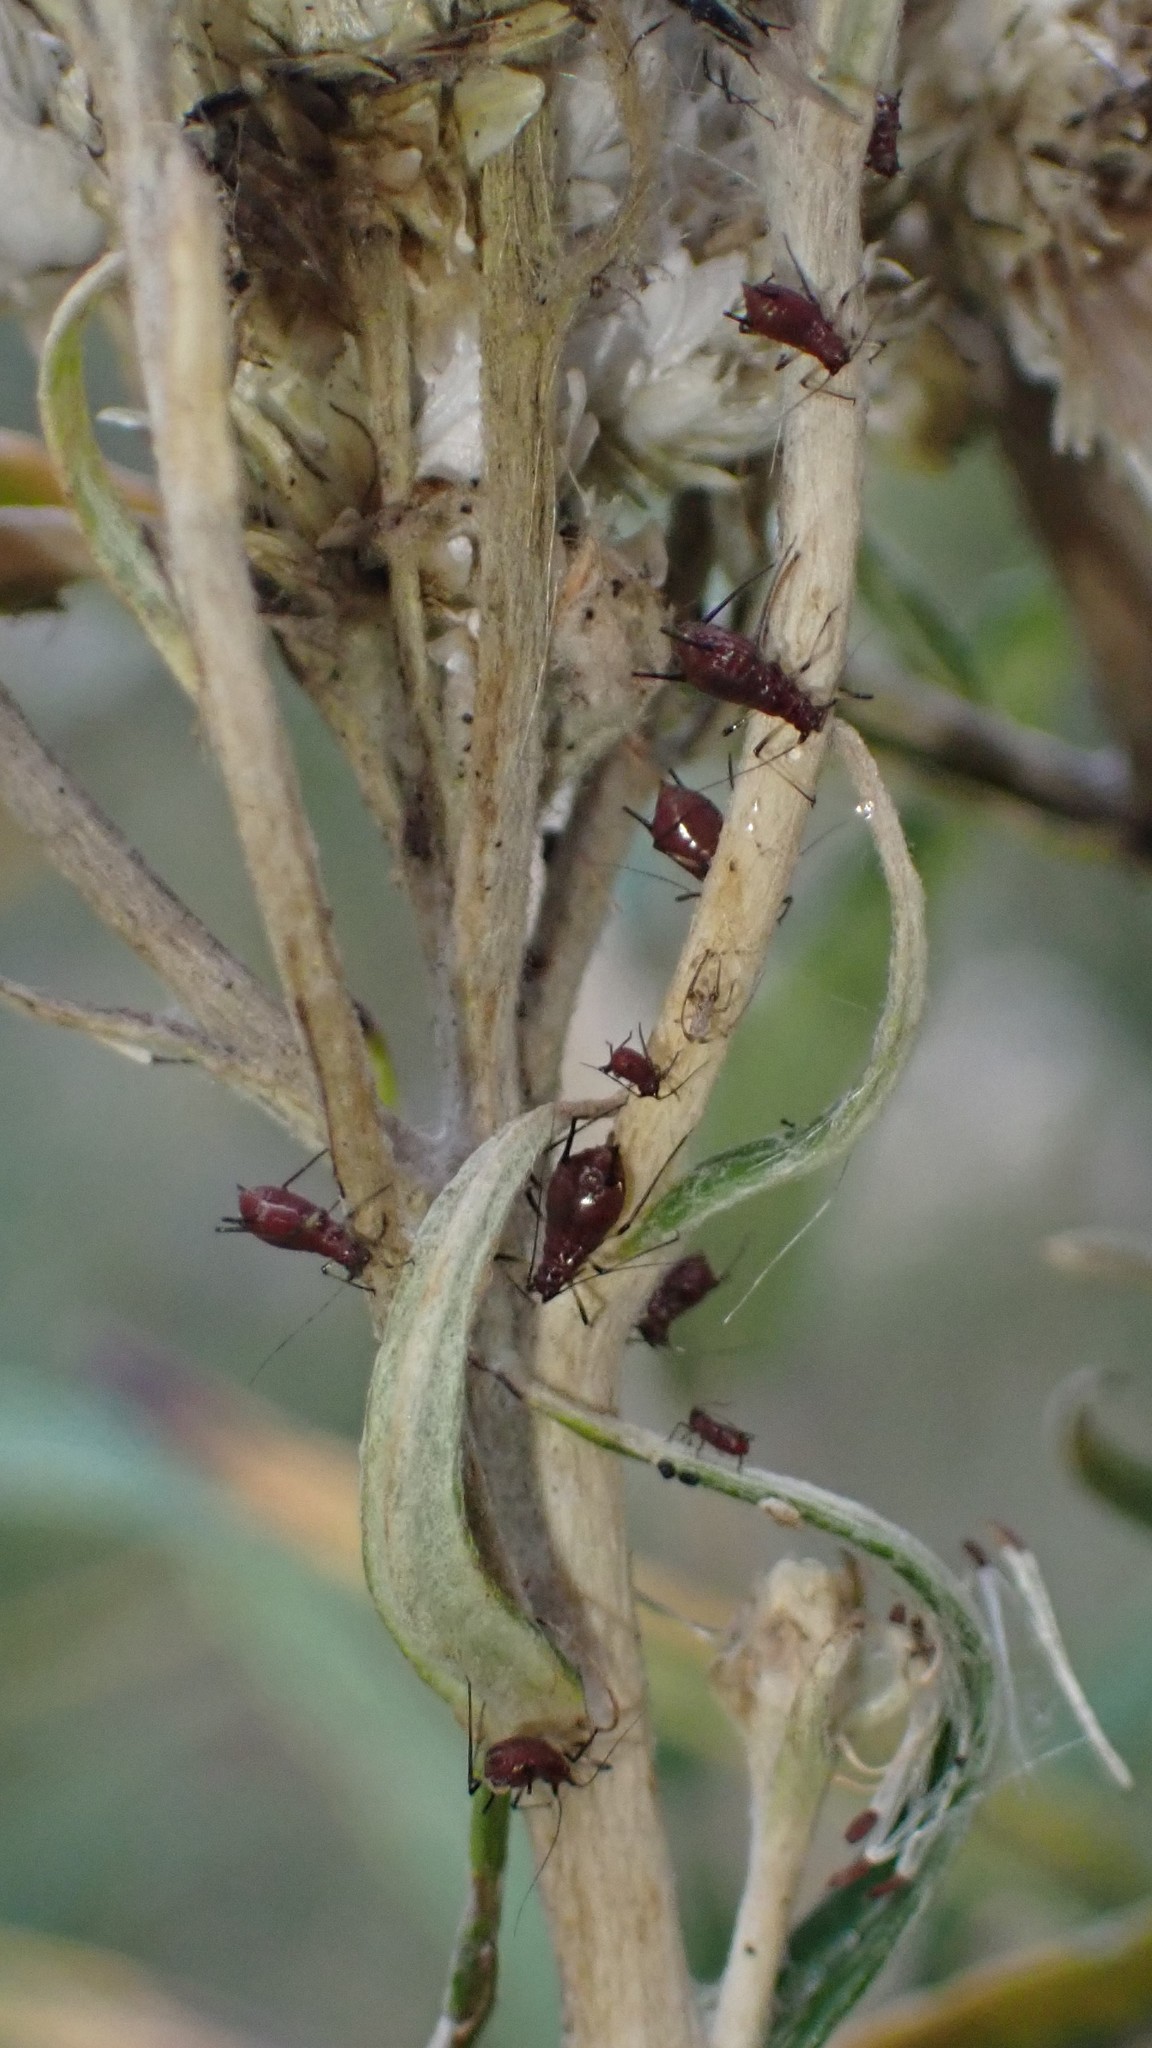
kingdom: Animalia
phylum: Arthropoda
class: Insecta
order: Hemiptera
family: Aphididae
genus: Uroleucon
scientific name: Uroleucon russellae
